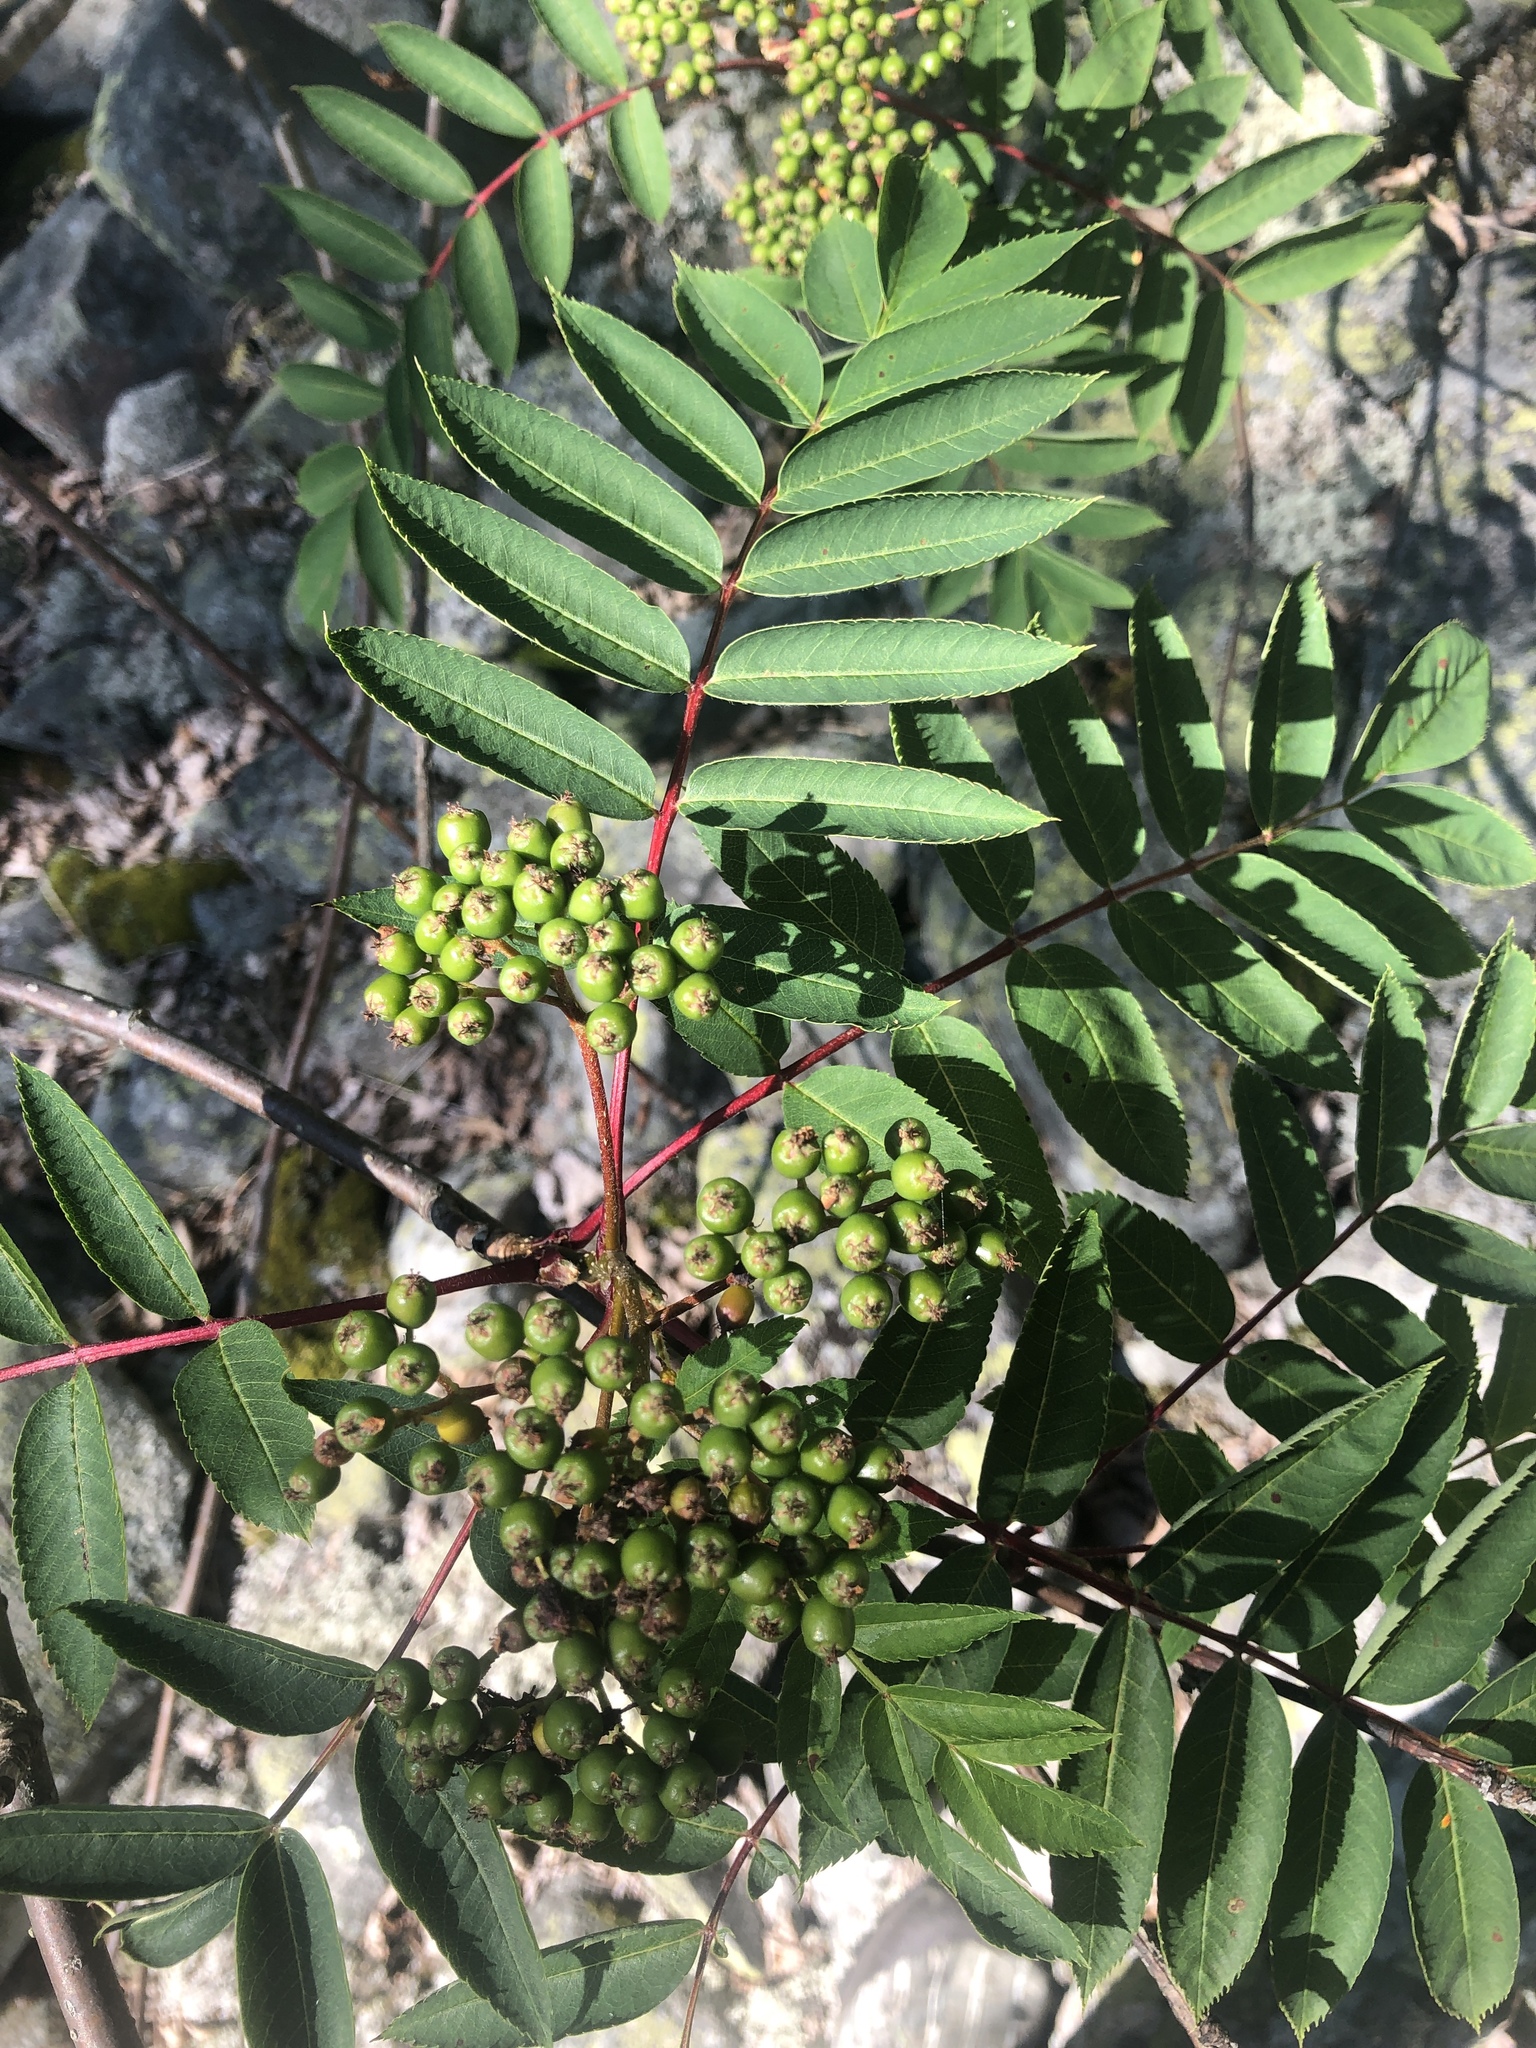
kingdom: Plantae
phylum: Tracheophyta
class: Magnoliopsida
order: Rosales
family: Rosaceae
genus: Sorbus
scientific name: Sorbus americana
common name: American mountain-ash
